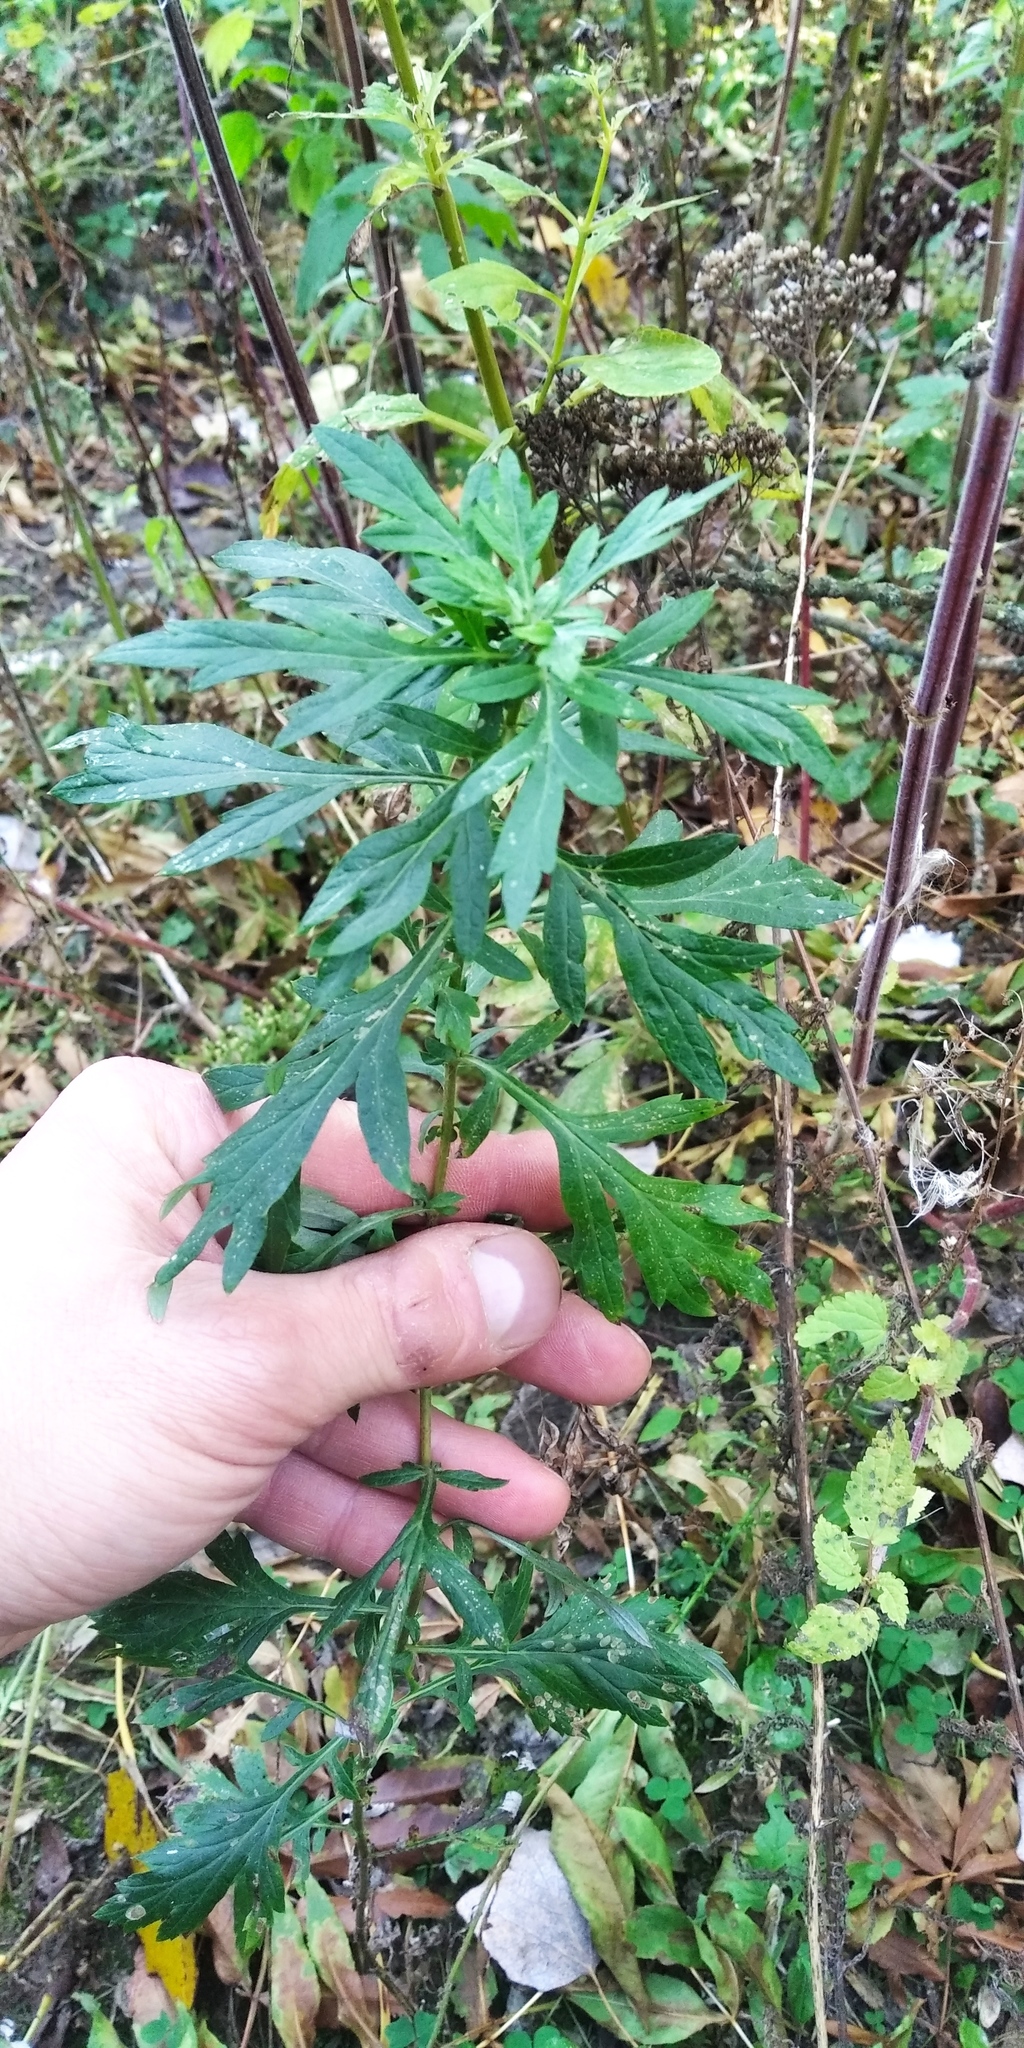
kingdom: Plantae
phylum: Tracheophyta
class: Magnoliopsida
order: Asterales
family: Asteraceae
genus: Artemisia
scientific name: Artemisia vulgaris
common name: Mugwort
